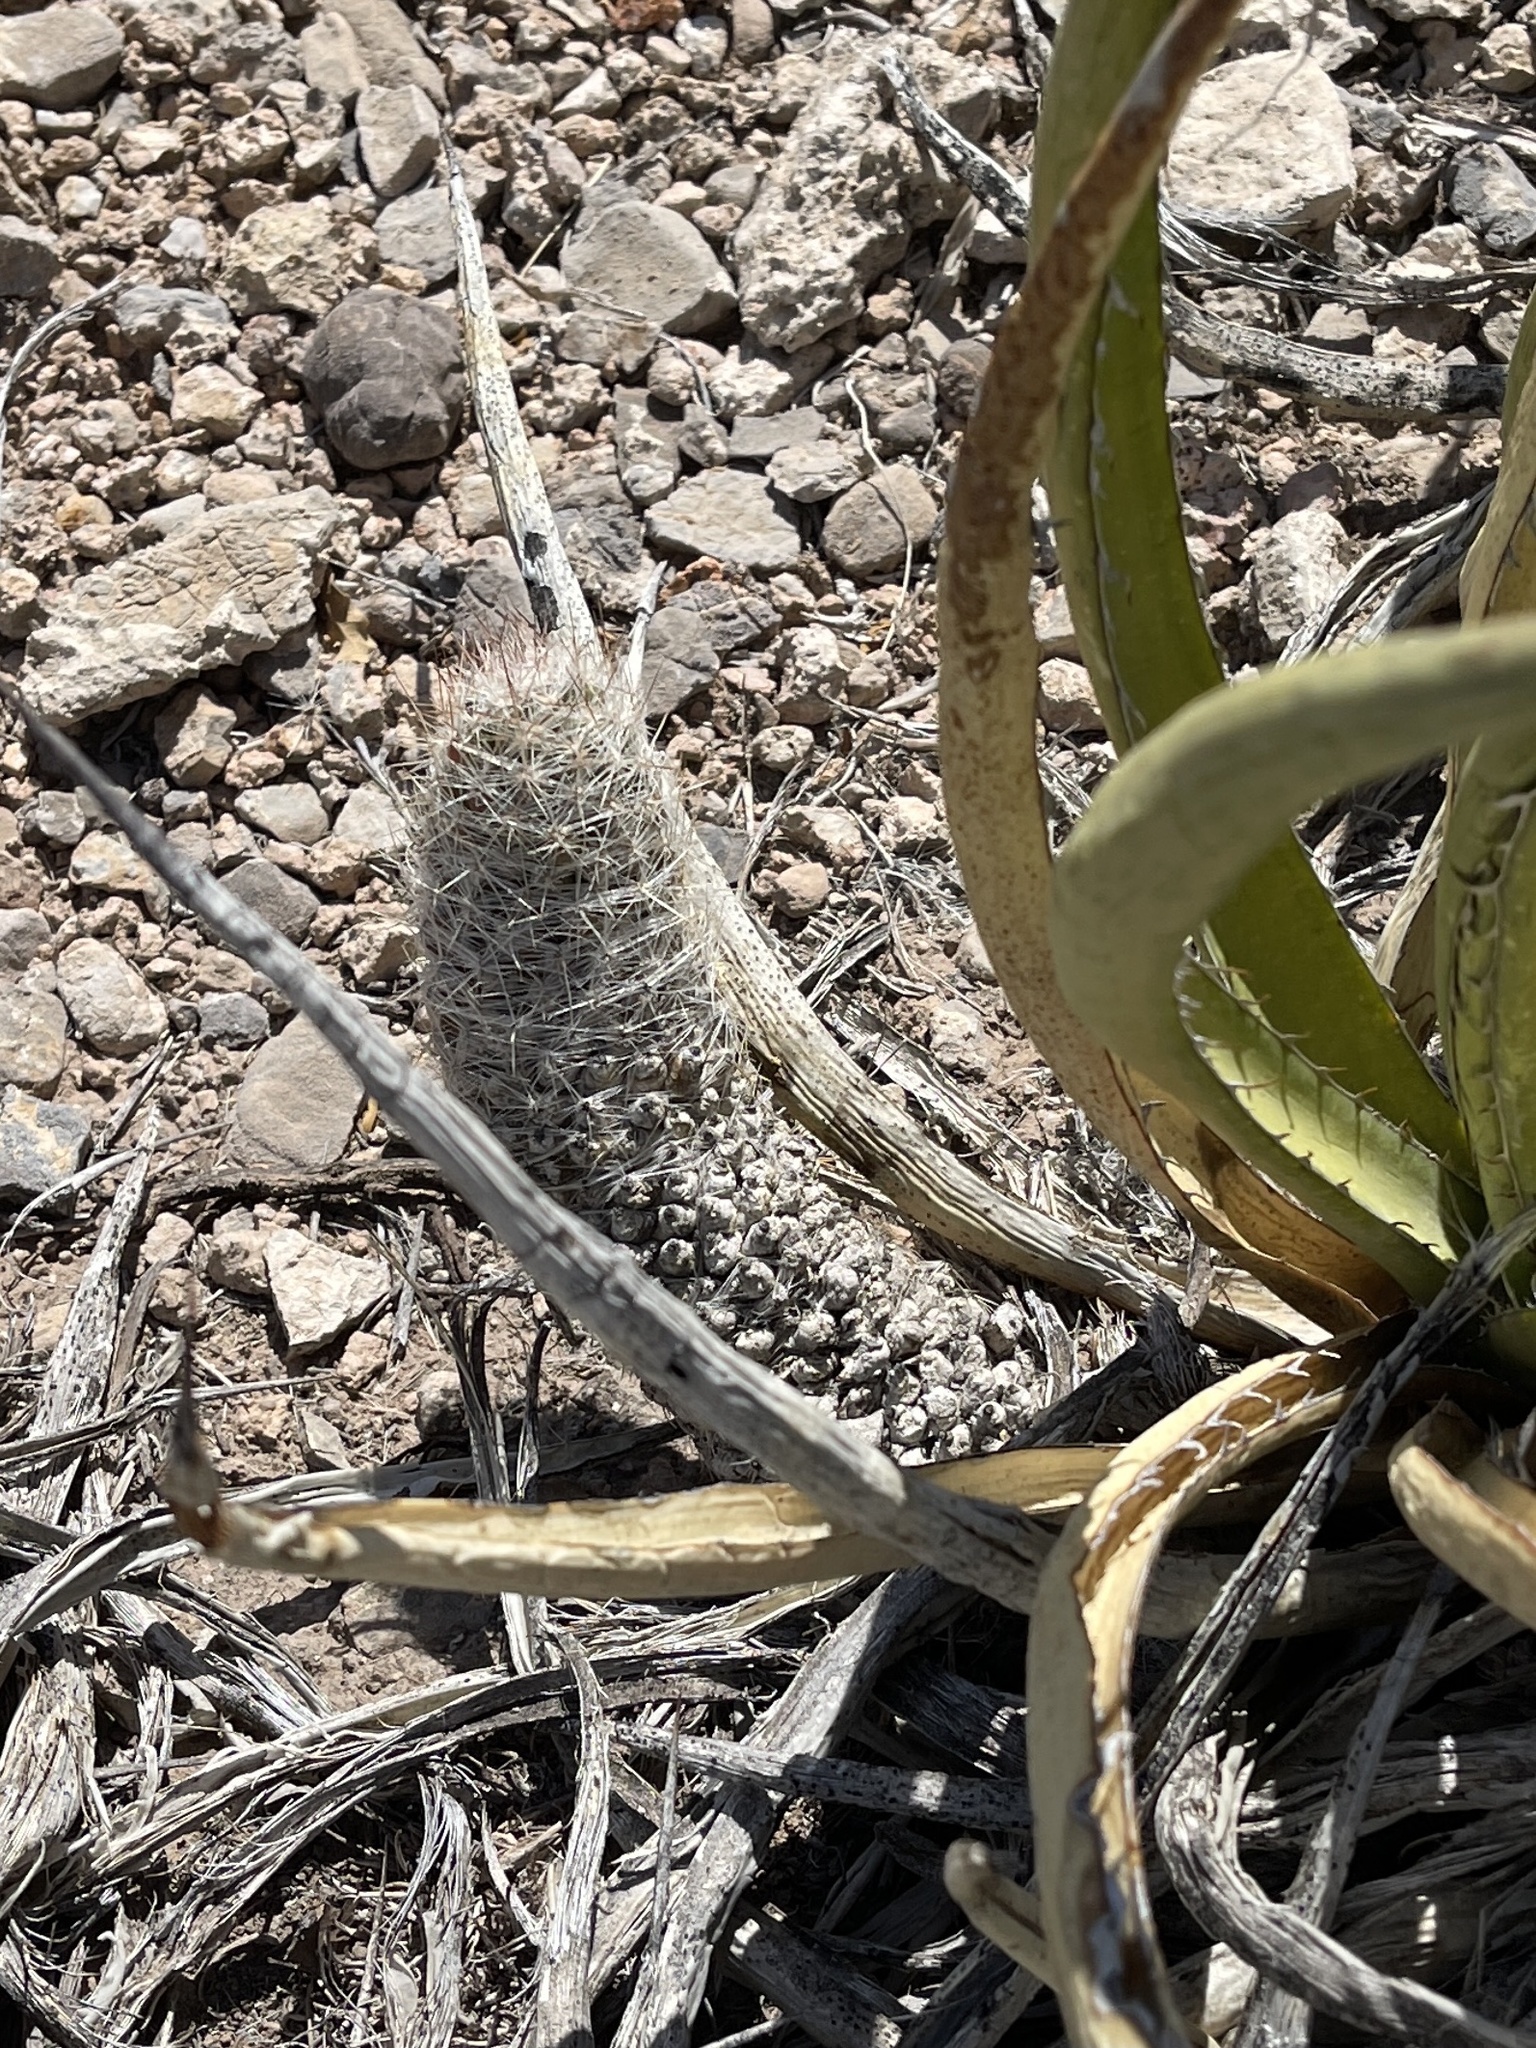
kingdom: Plantae
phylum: Tracheophyta
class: Magnoliopsida
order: Caryophyllales
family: Cactaceae
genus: Pelecyphora
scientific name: Pelecyphora tuberculosa
